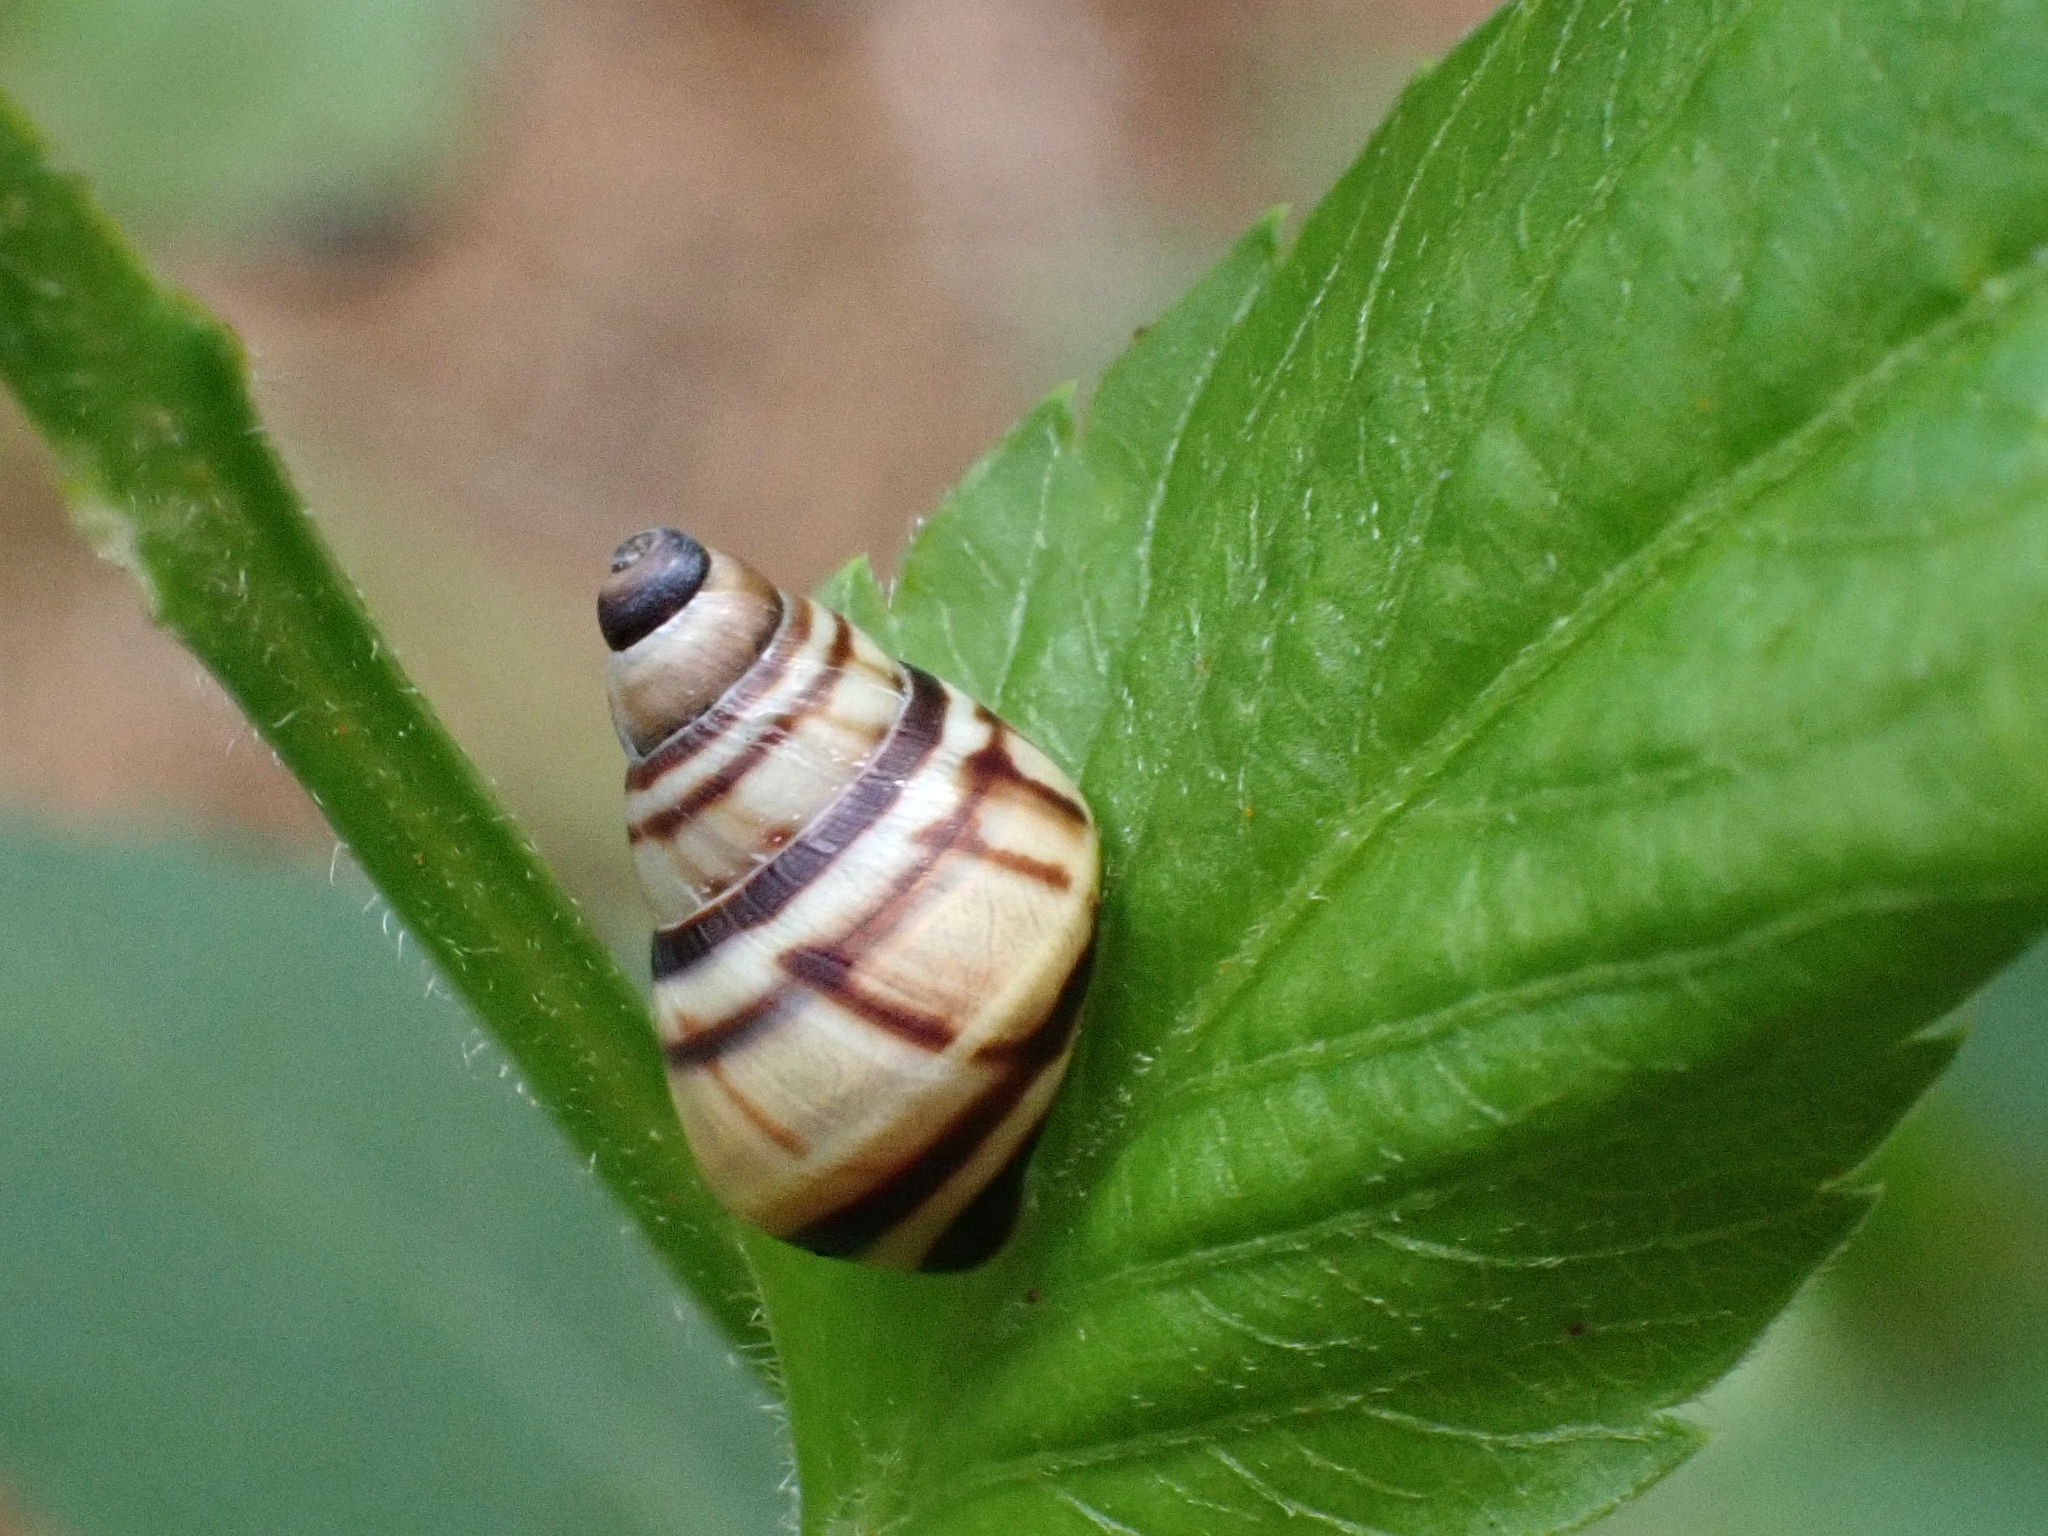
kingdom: Animalia
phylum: Mollusca
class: Gastropoda
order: Stylommatophora
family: Bulimulidae
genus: Drymaeus
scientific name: Drymaeus
